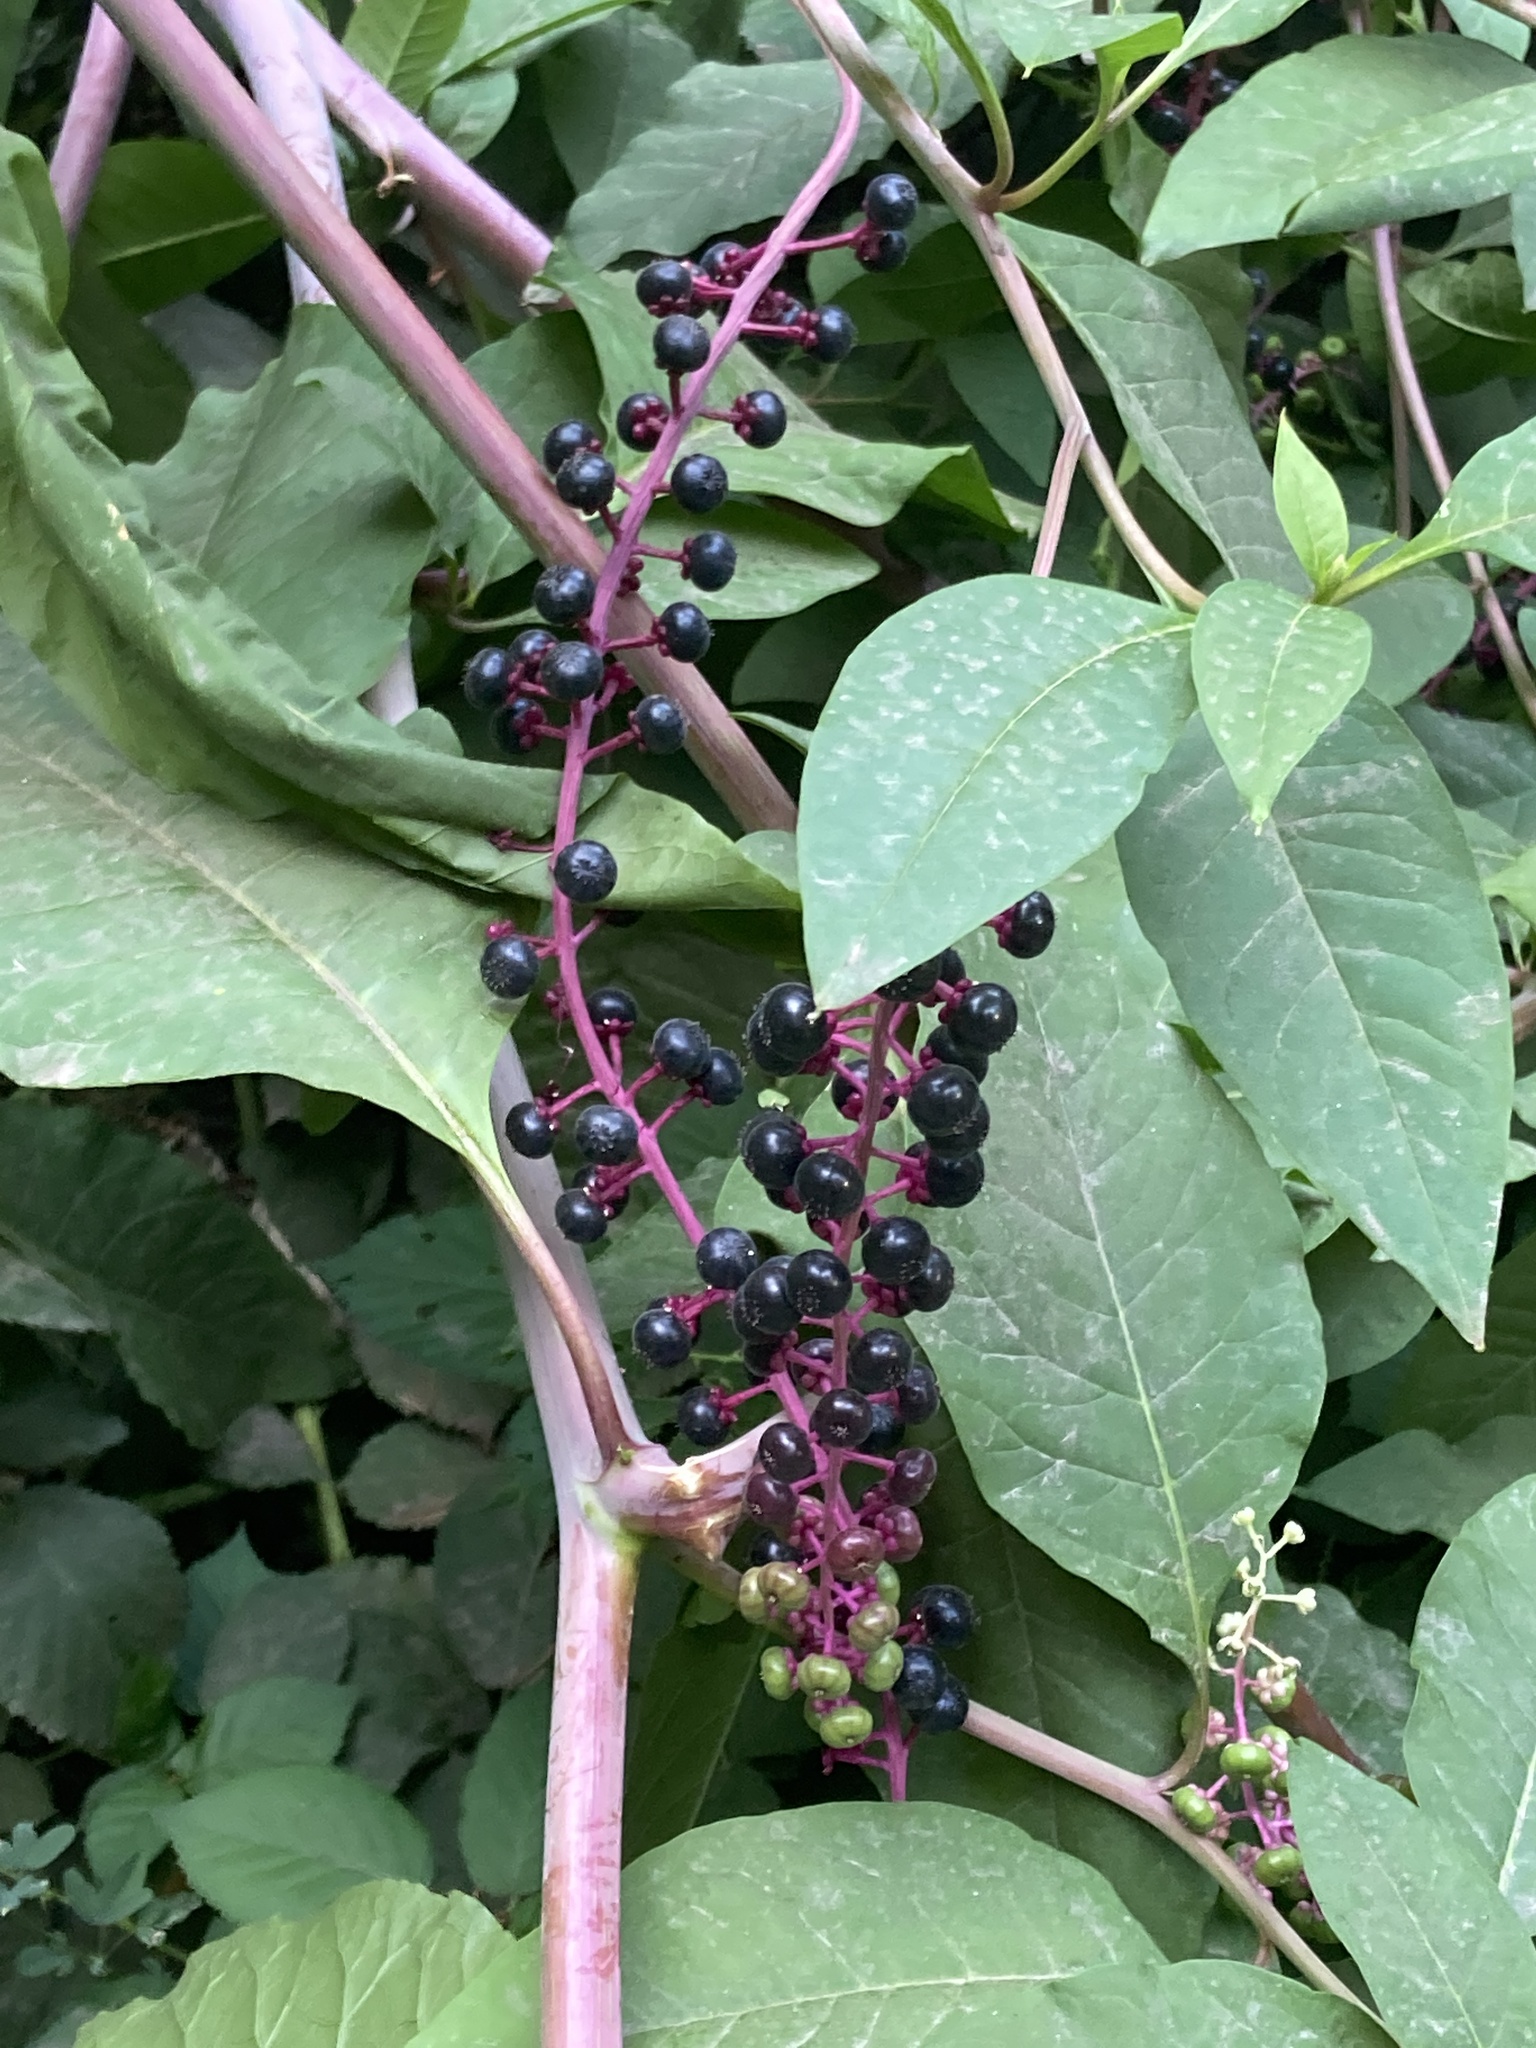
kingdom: Plantae
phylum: Tracheophyta
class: Magnoliopsida
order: Caryophyllales
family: Phytolaccaceae
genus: Phytolacca
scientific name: Phytolacca americana
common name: American pokeweed
